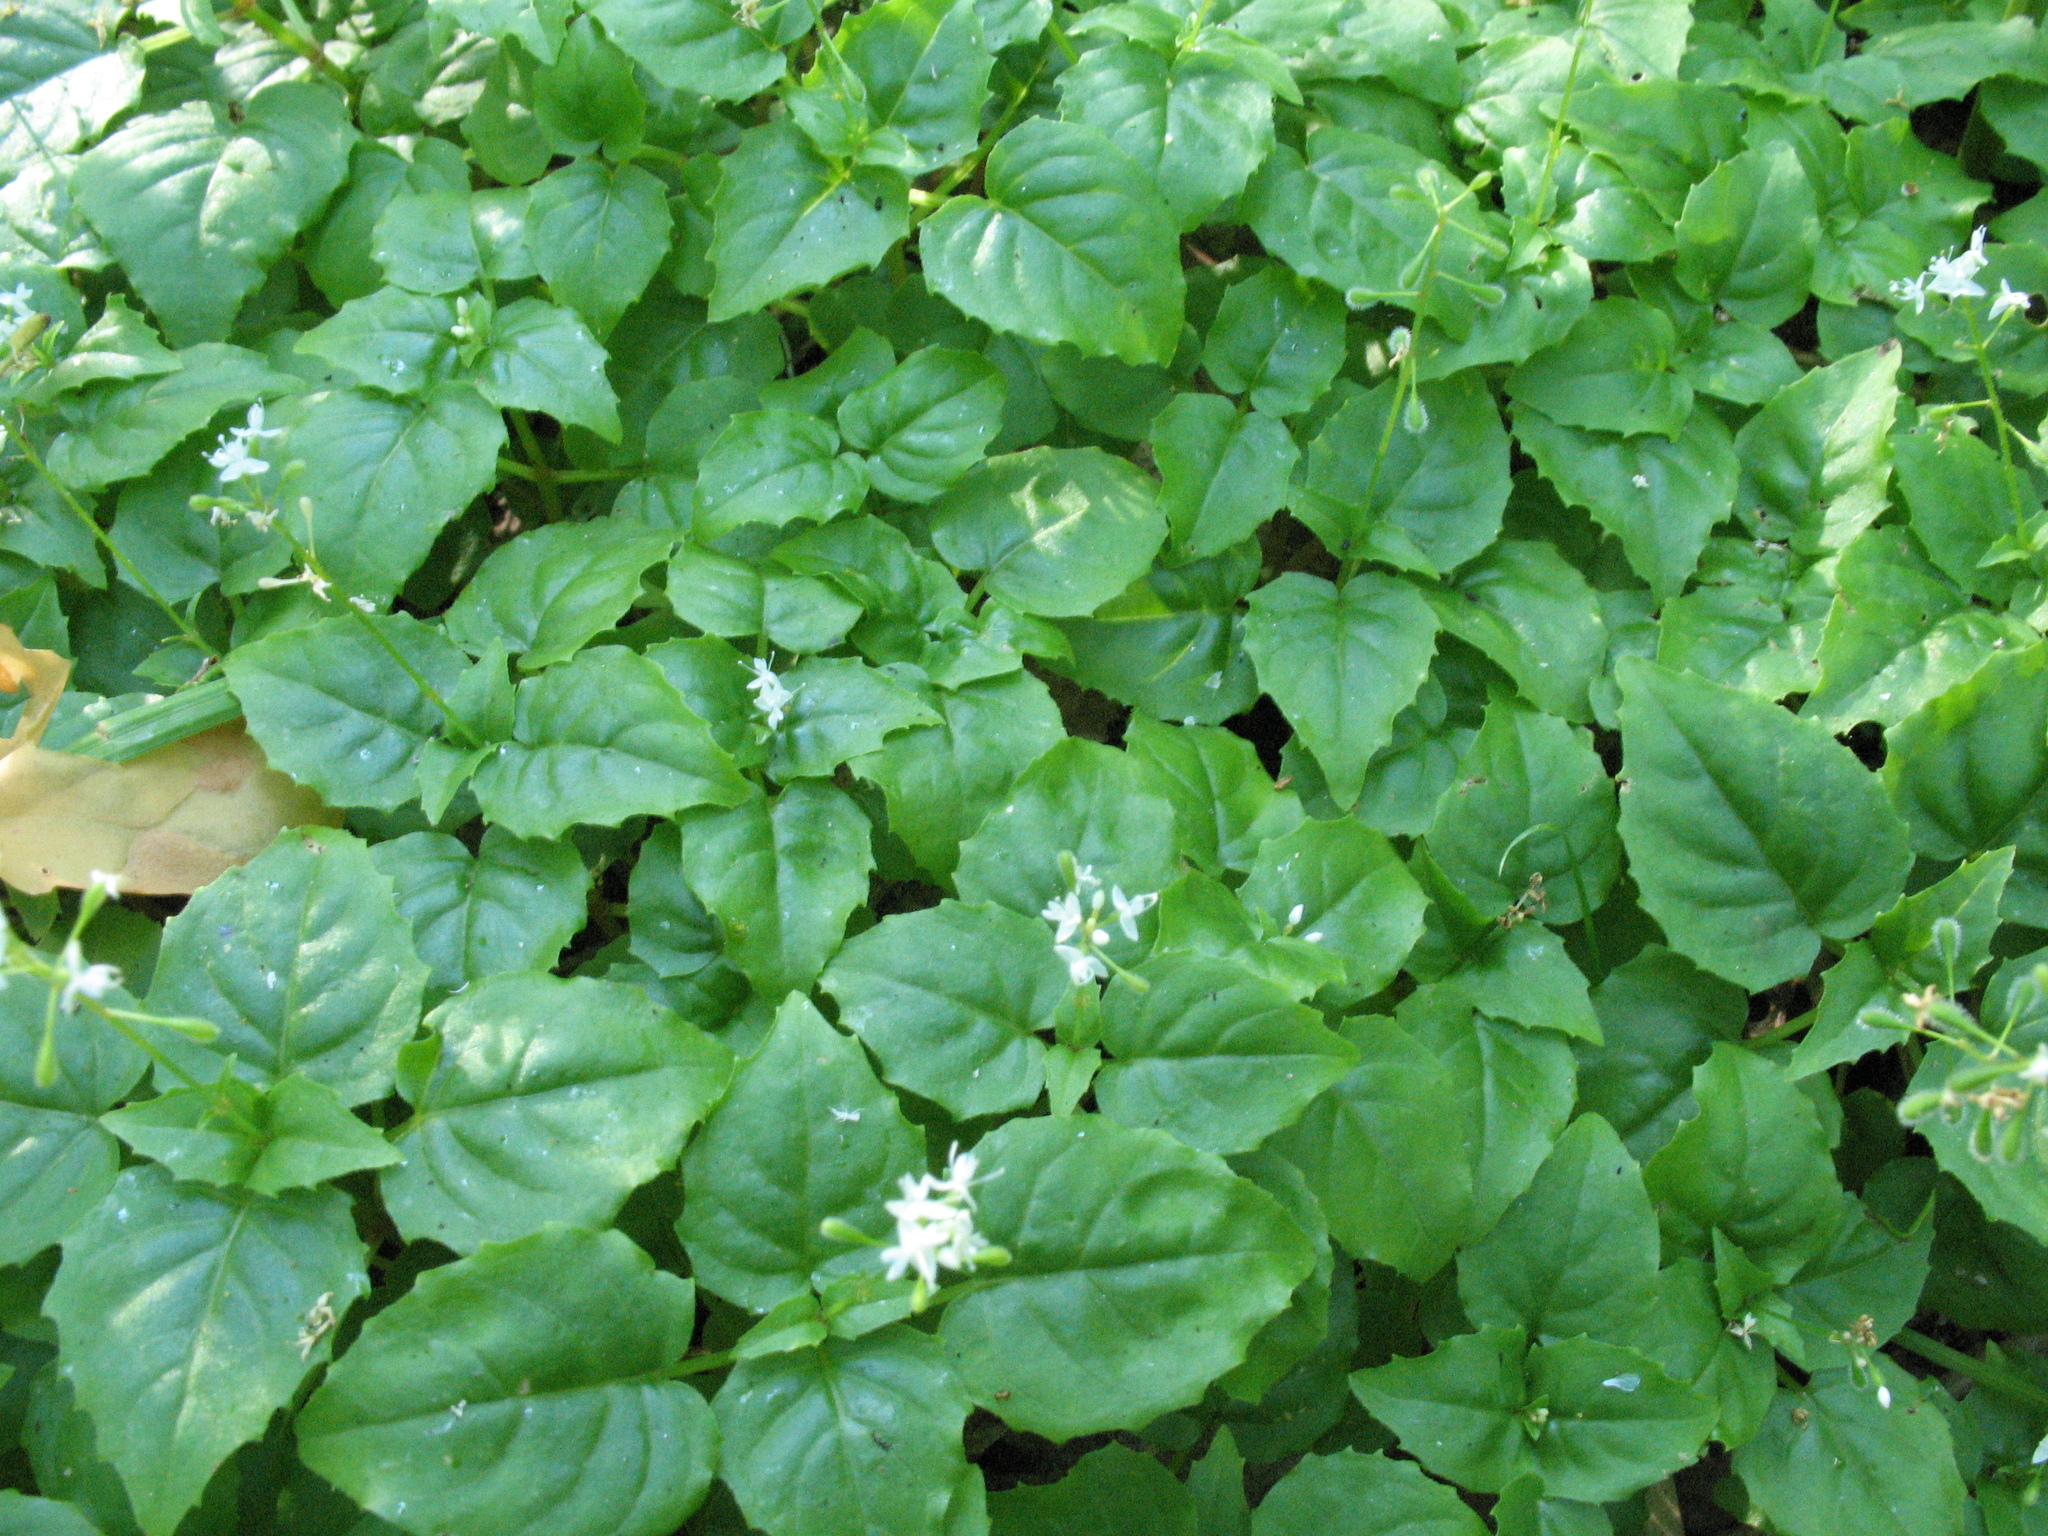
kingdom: Plantae
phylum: Tracheophyta
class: Magnoliopsida
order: Myrtales
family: Onagraceae
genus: Circaea
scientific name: Circaea alpina
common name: Alpine enchanter's-nightshade
